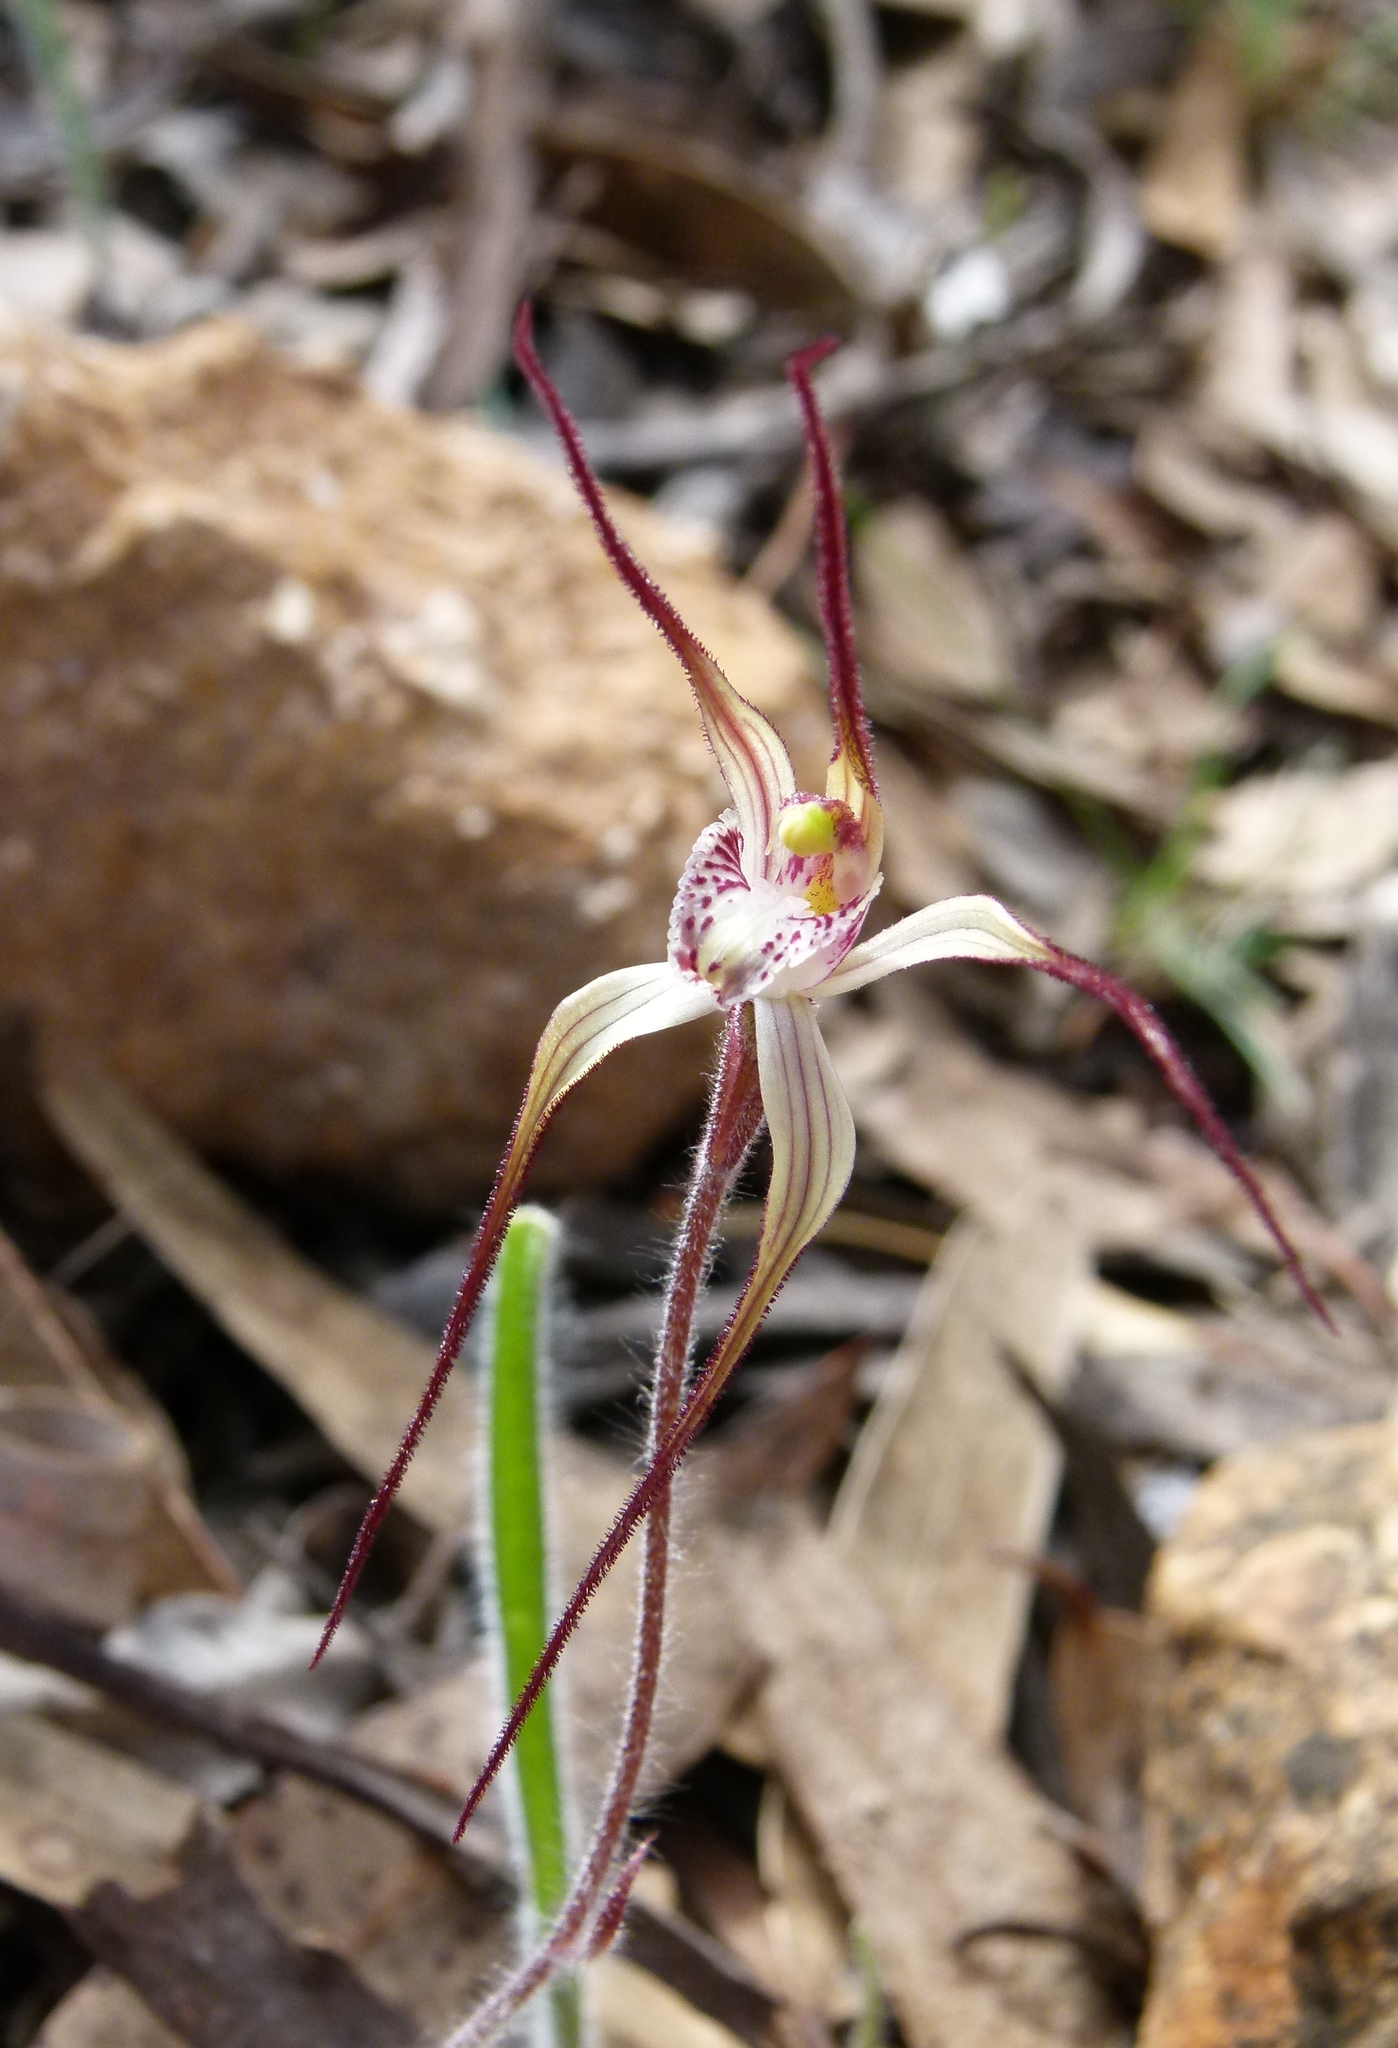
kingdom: Plantae
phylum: Tracheophyta
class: Liliopsida
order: Asparagales
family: Orchidaceae
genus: Caladenia
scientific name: Caladenia melanema
